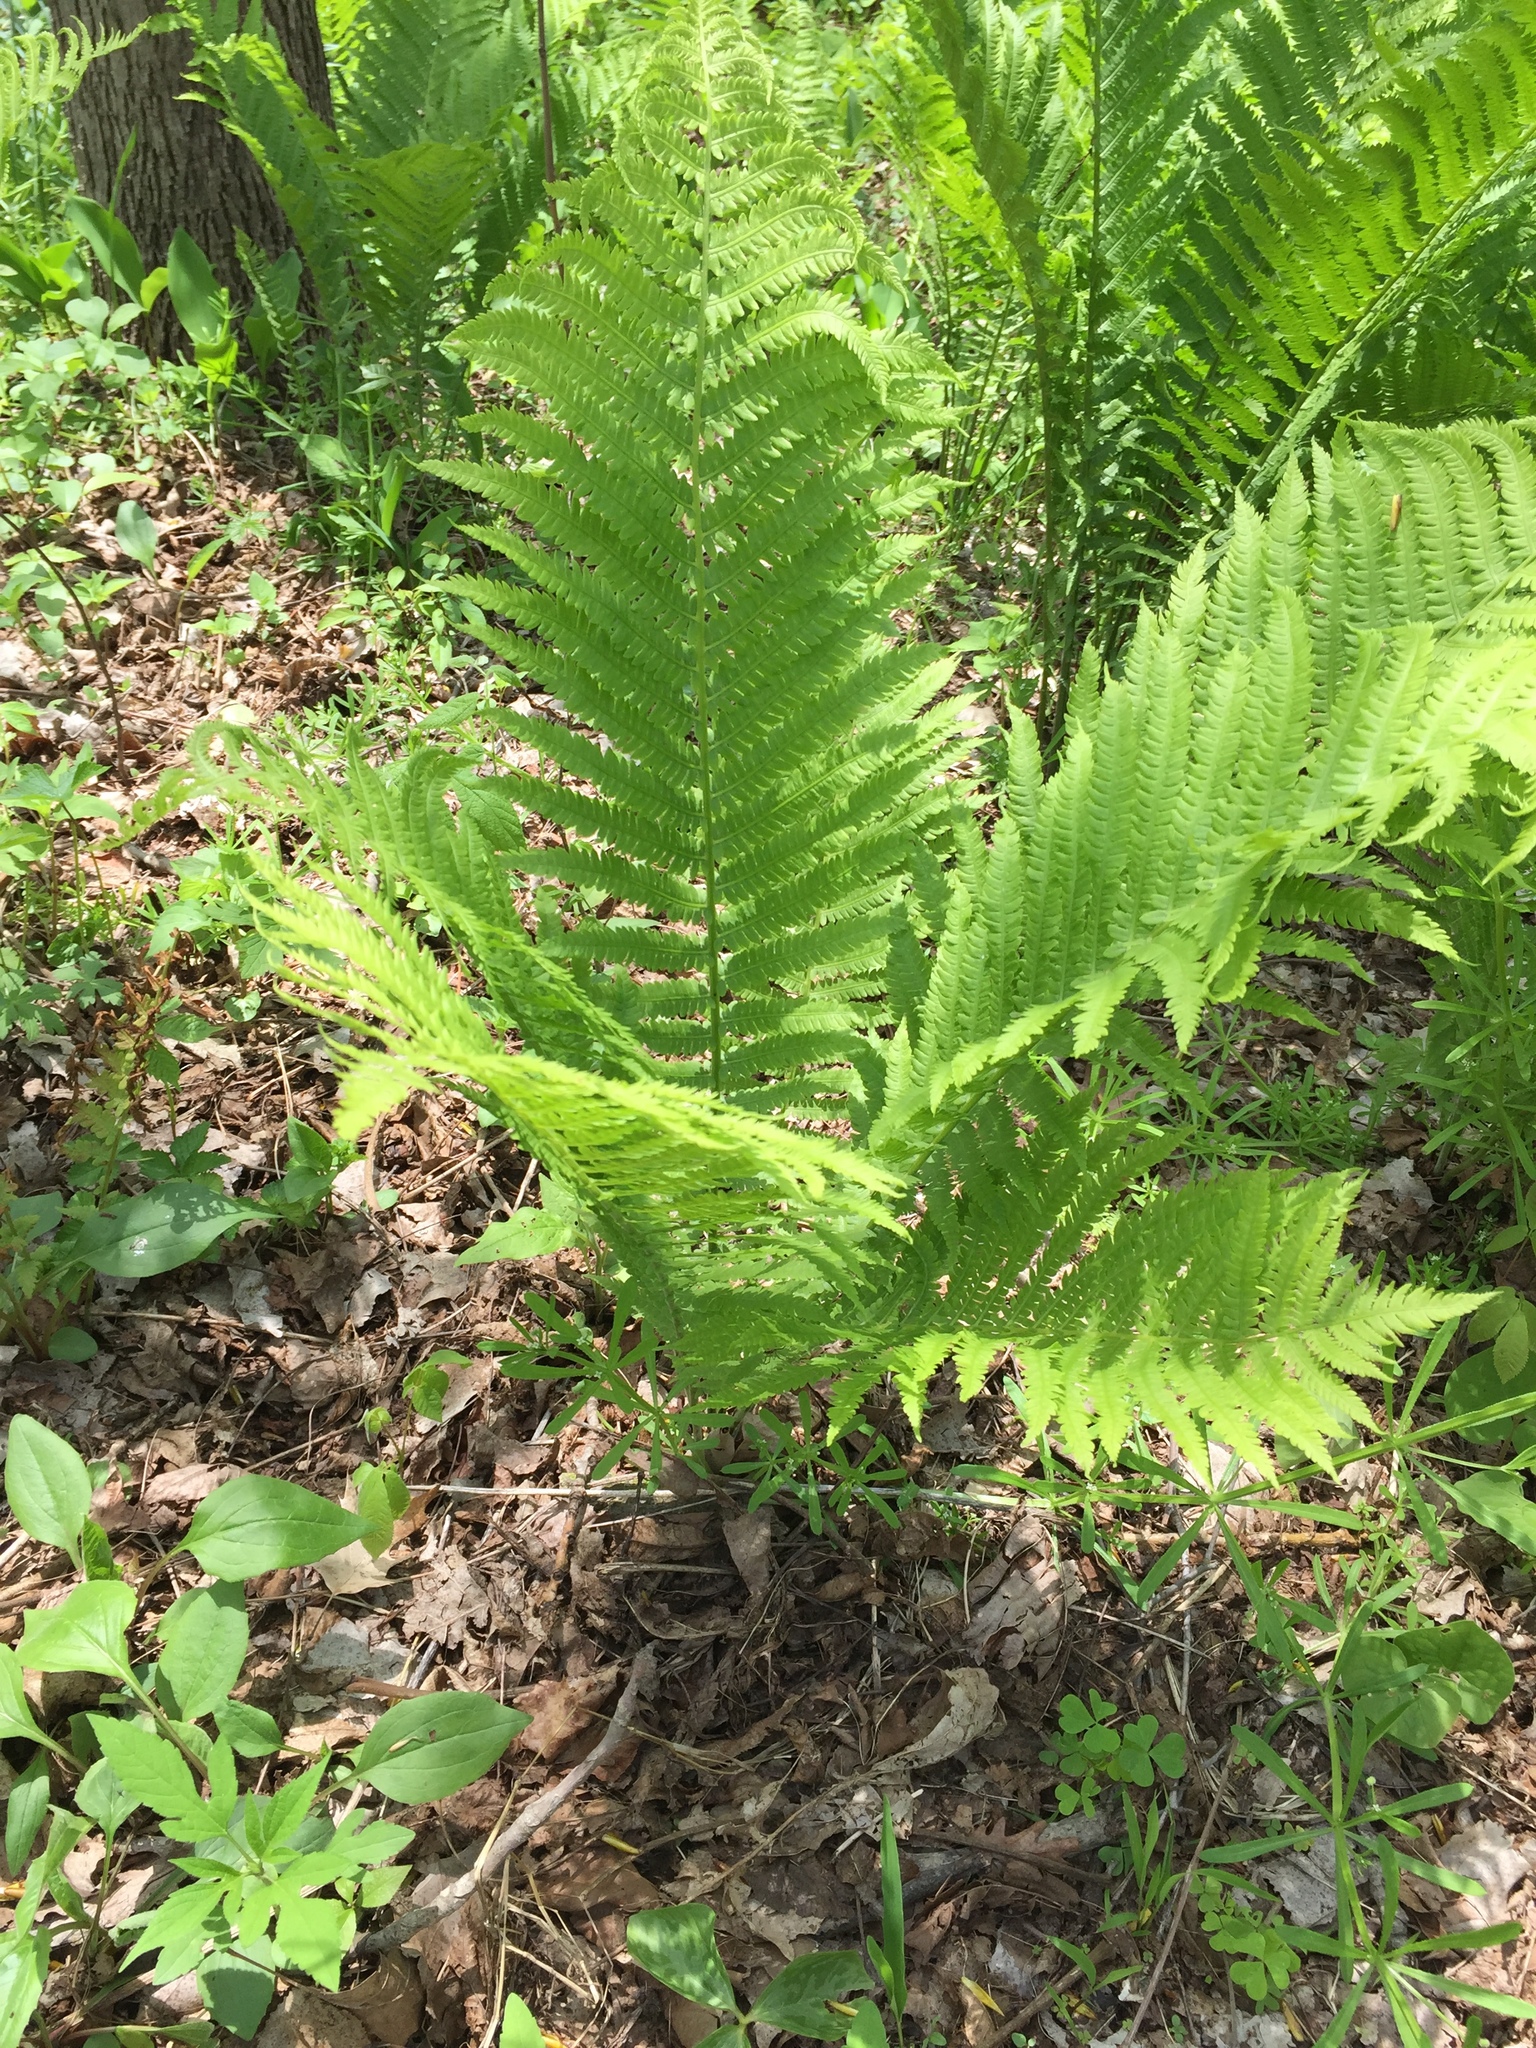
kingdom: Plantae
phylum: Tracheophyta
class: Polypodiopsida
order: Polypodiales
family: Onocleaceae
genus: Matteuccia
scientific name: Matteuccia struthiopteris
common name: Ostrich fern
